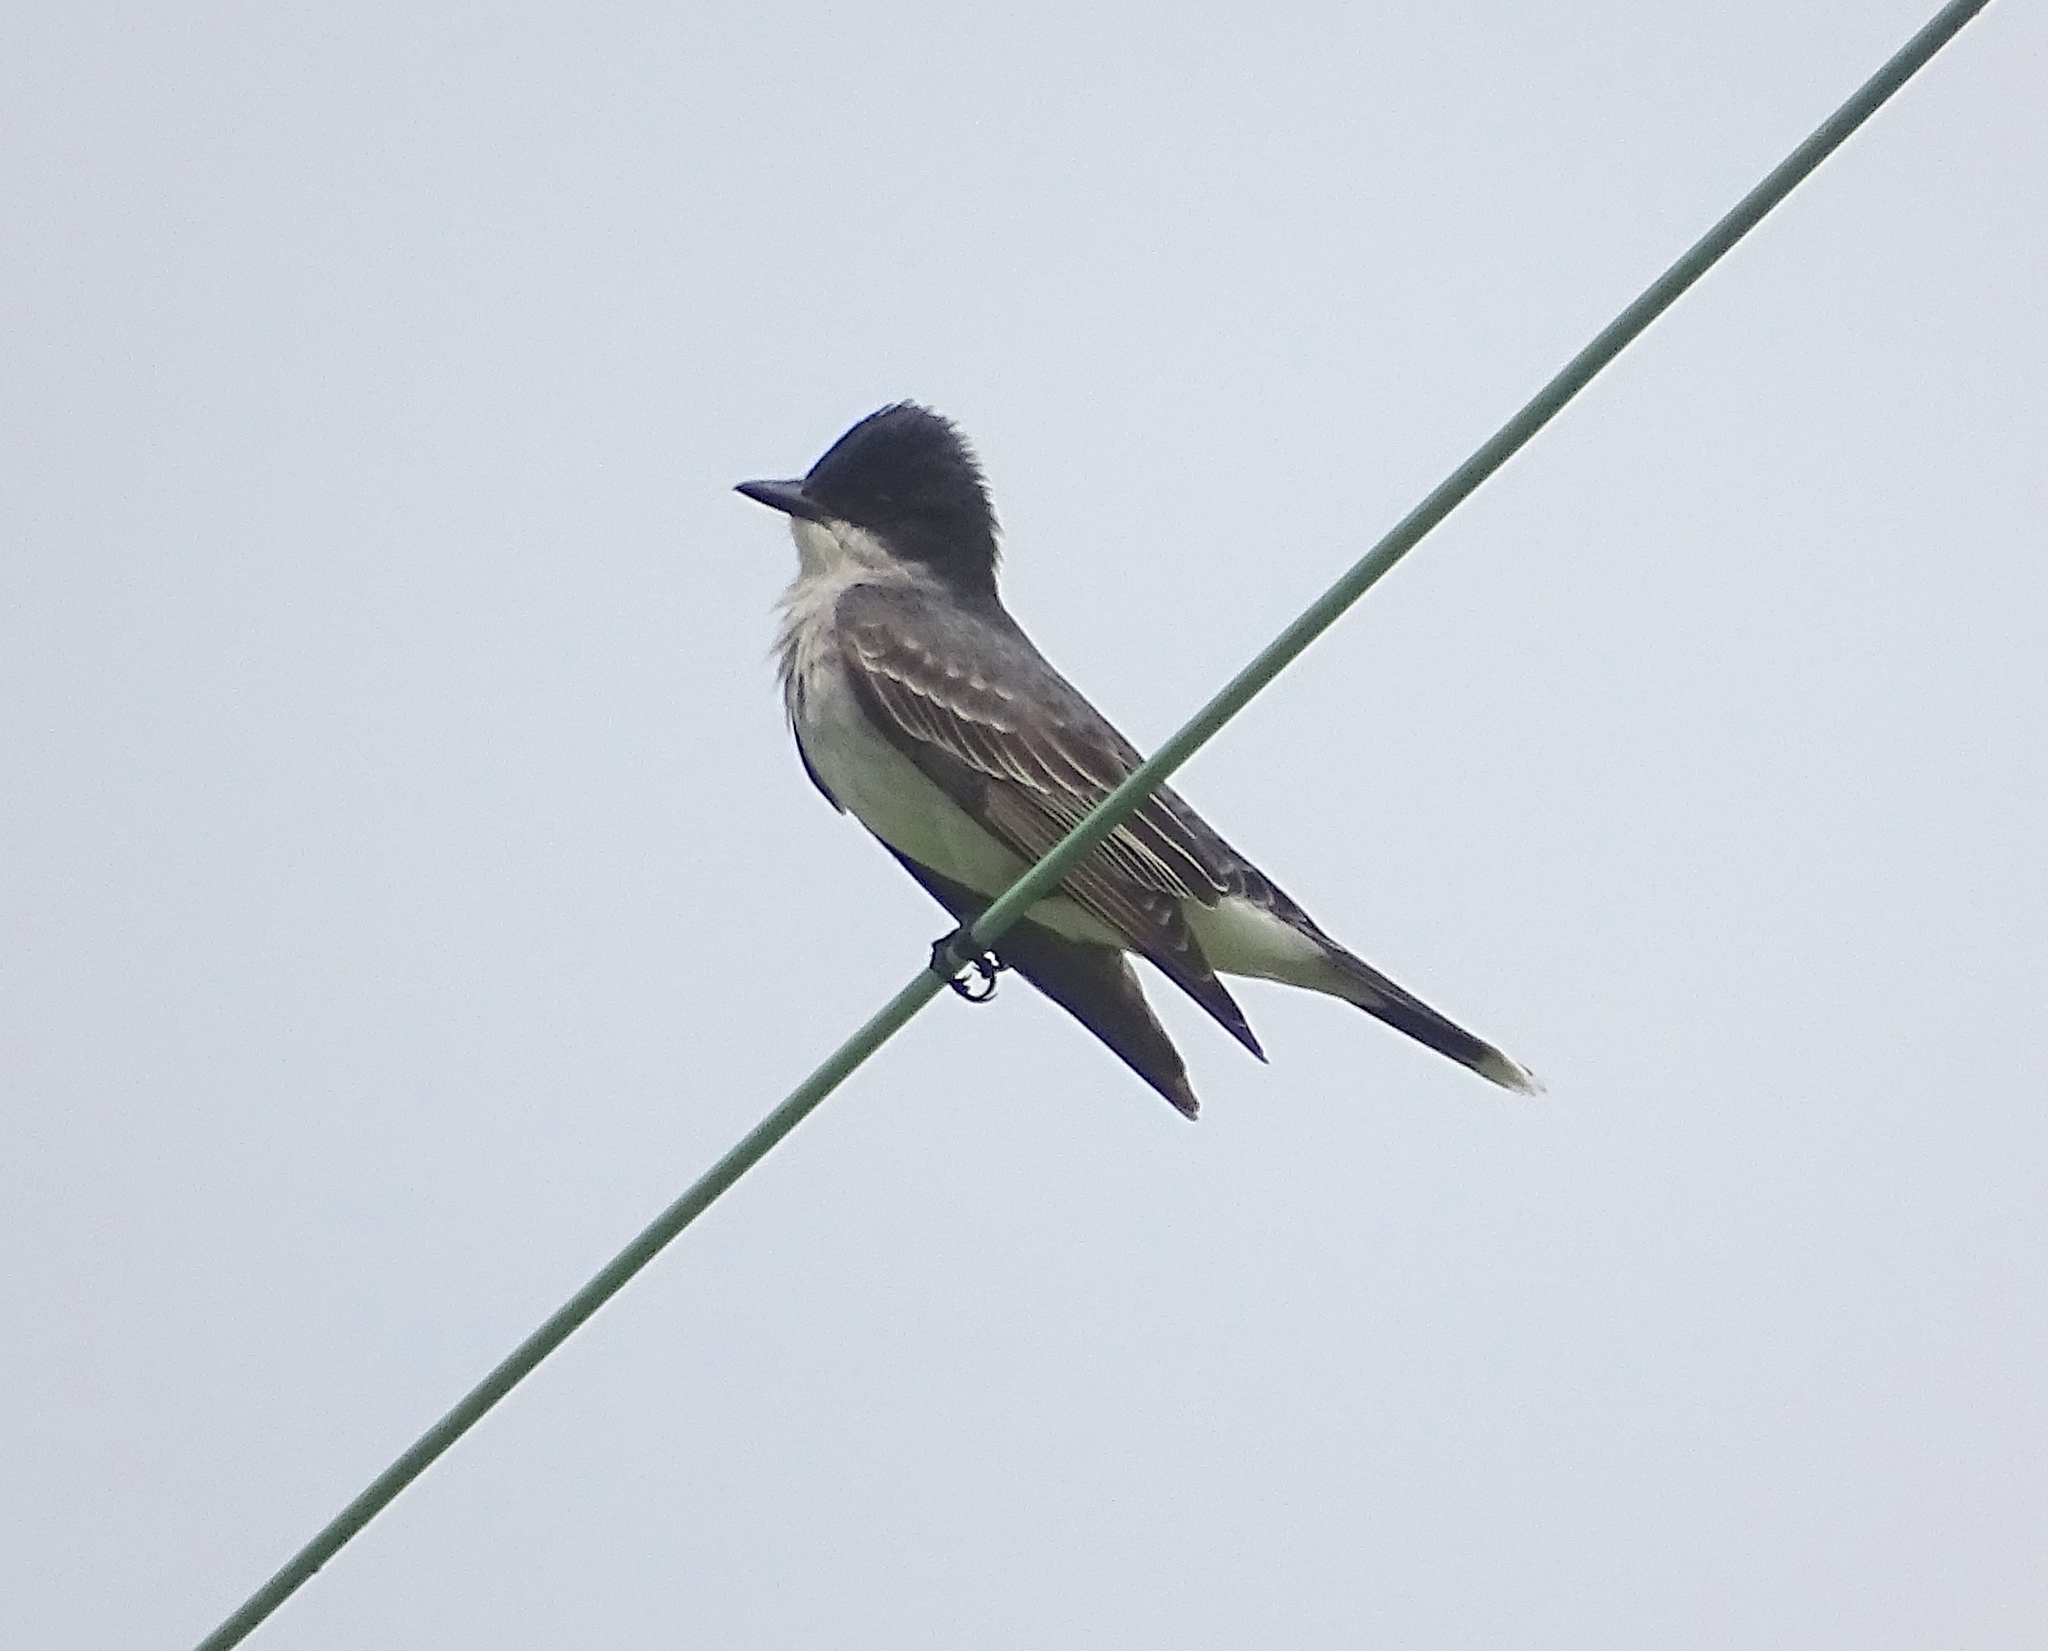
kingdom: Animalia
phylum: Chordata
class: Aves
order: Passeriformes
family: Tyrannidae
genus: Tyrannus
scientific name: Tyrannus tyrannus
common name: Eastern kingbird
